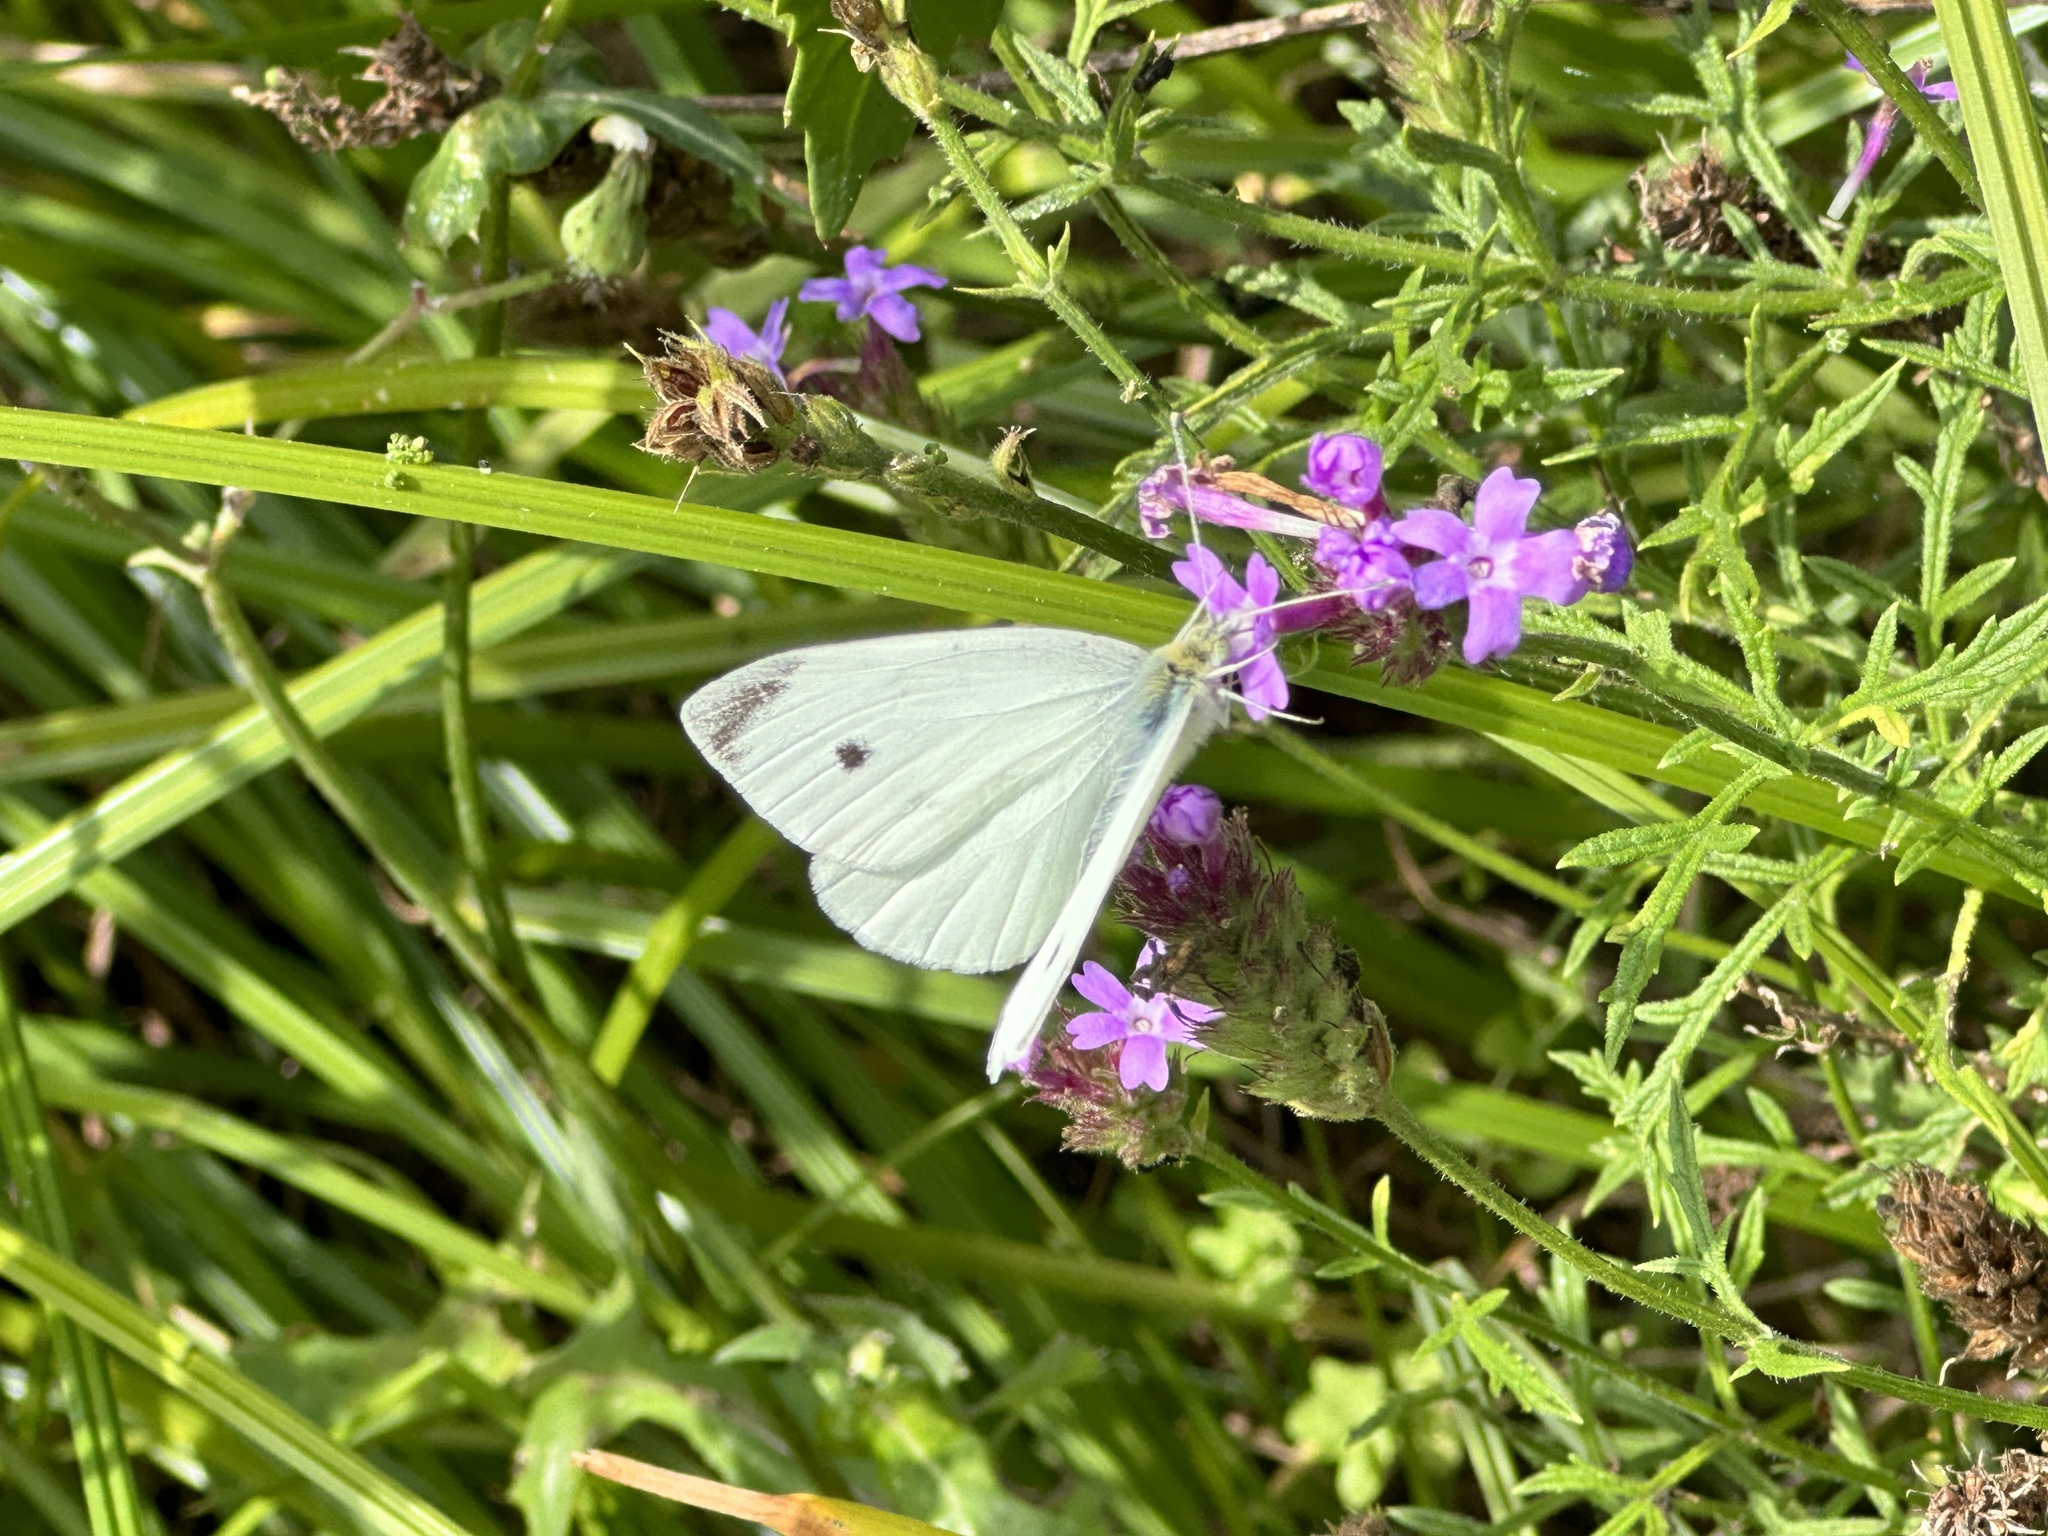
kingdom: Animalia
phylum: Arthropoda
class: Insecta
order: Lepidoptera
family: Pieridae
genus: Pieris
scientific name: Pieris rapae
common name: Small white
